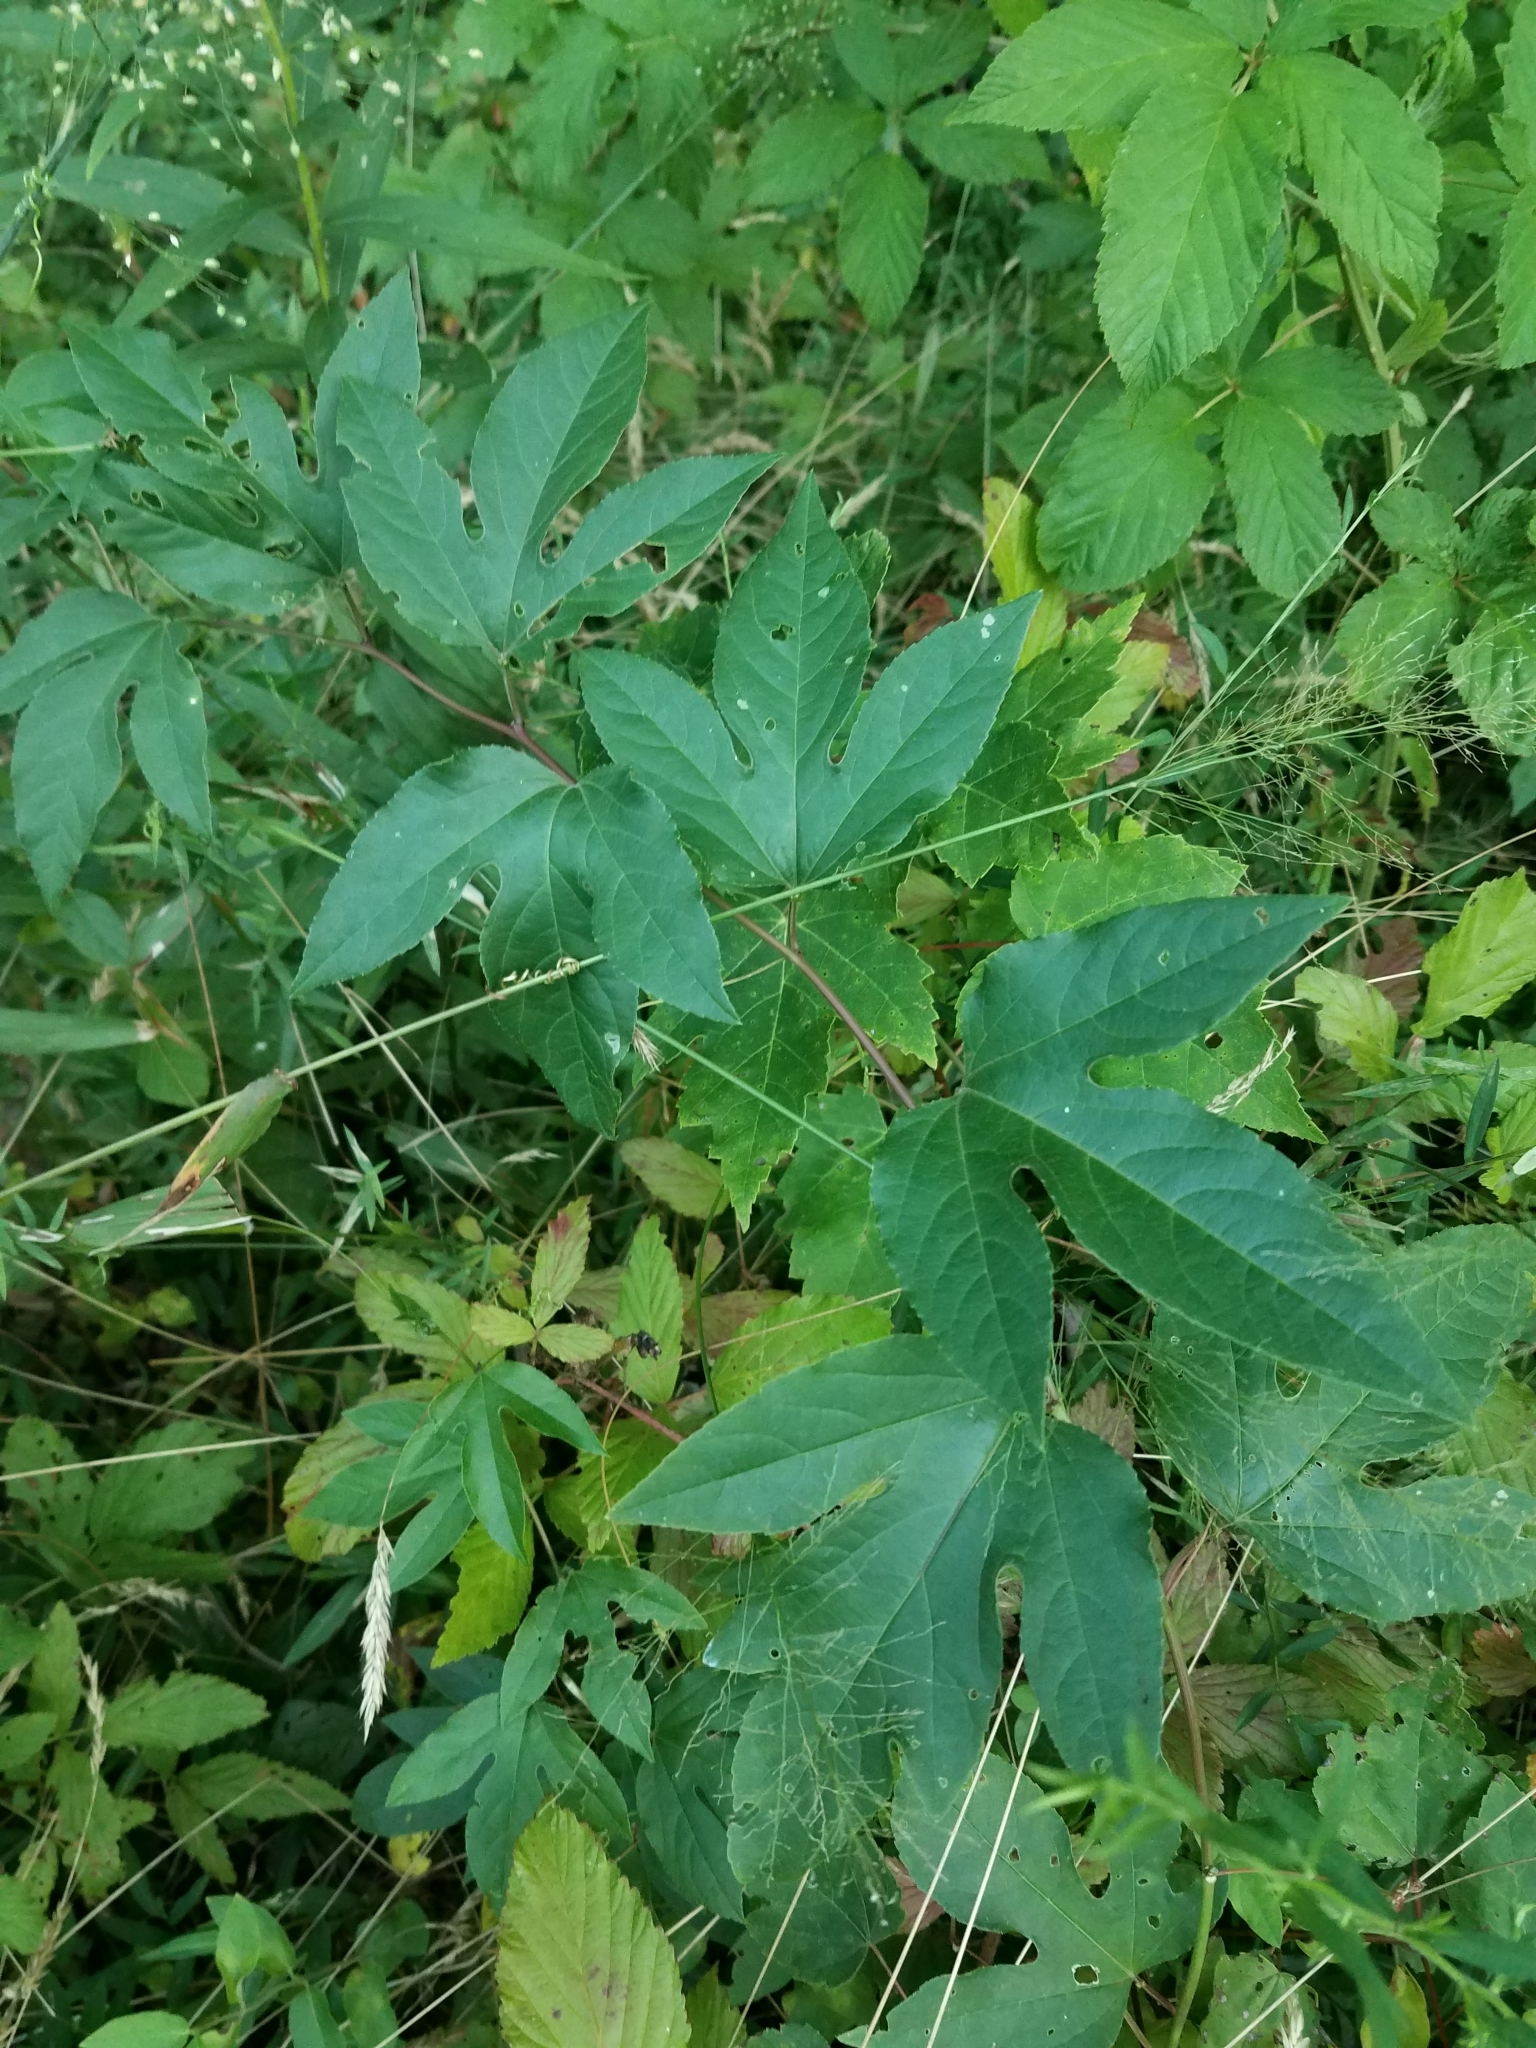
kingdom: Plantae
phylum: Tracheophyta
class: Magnoliopsida
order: Malpighiales
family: Passifloraceae
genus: Passiflora
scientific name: Passiflora incarnata
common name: Apricot-vine
